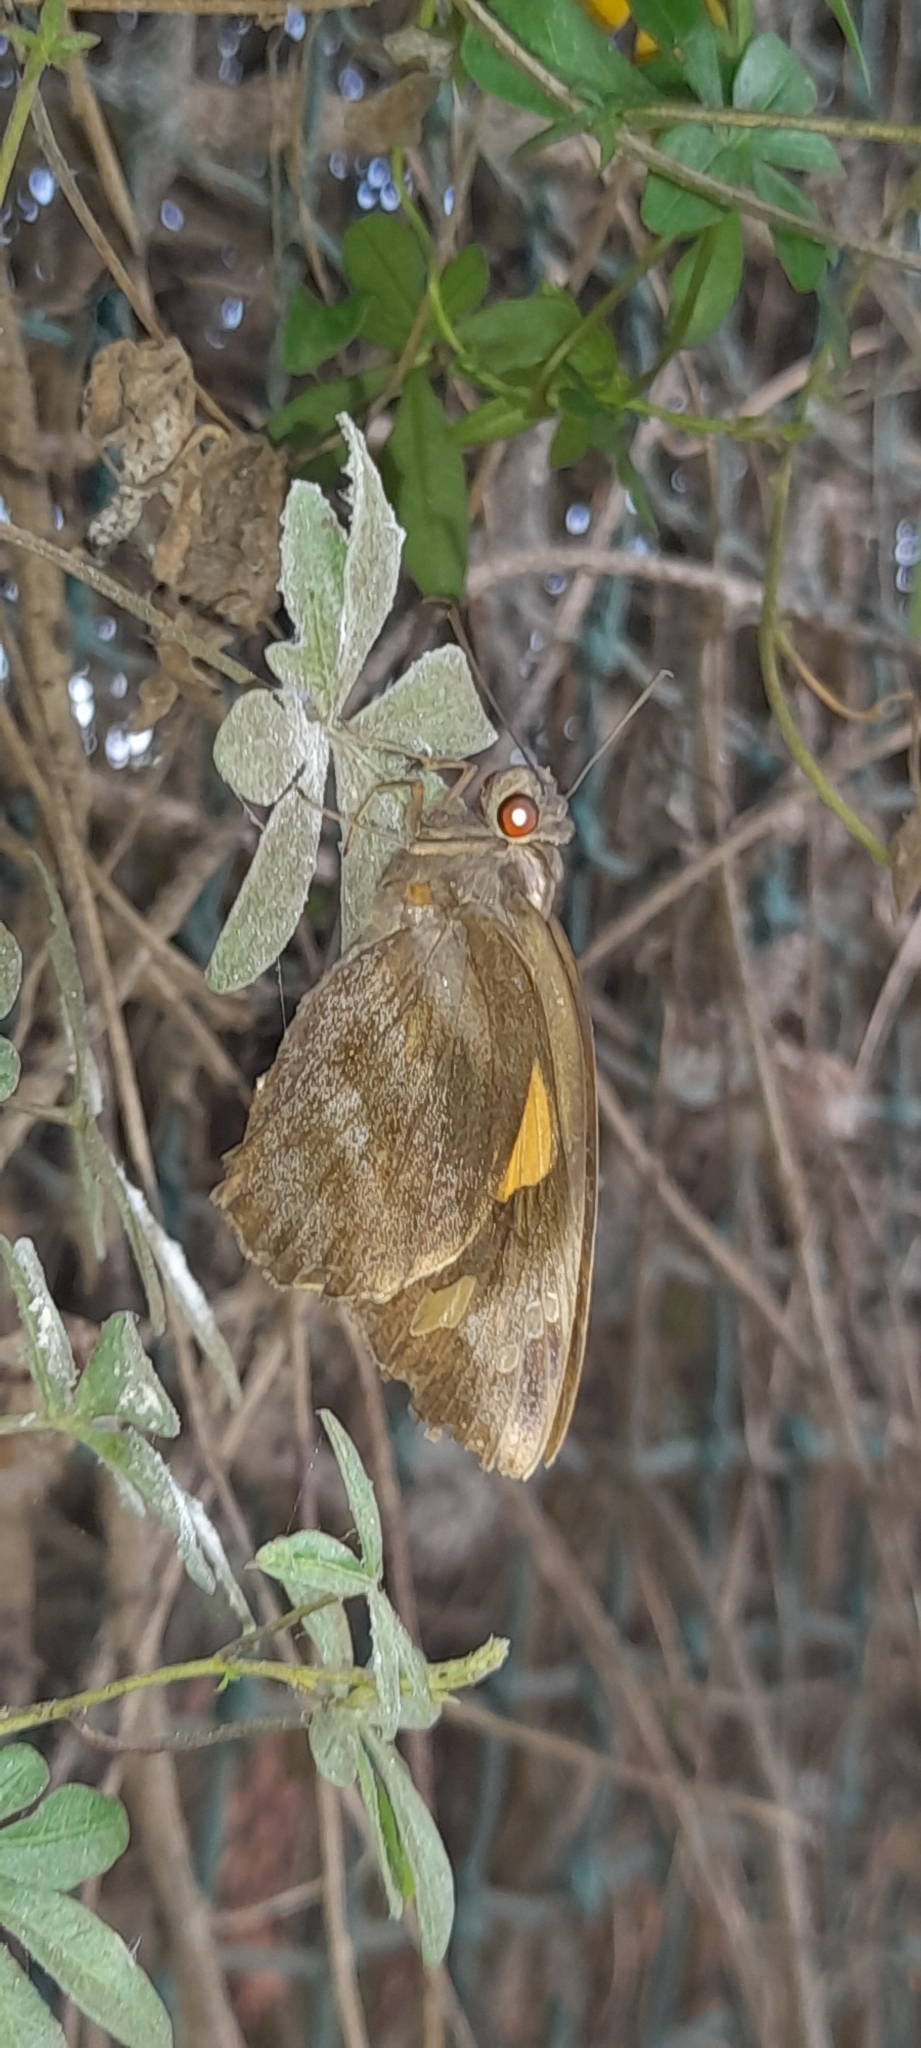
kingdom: Animalia
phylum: Arthropoda
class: Insecta
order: Lepidoptera
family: Hesperiidae
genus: Gangara
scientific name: Gangara thyrsis
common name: Giant redeye
